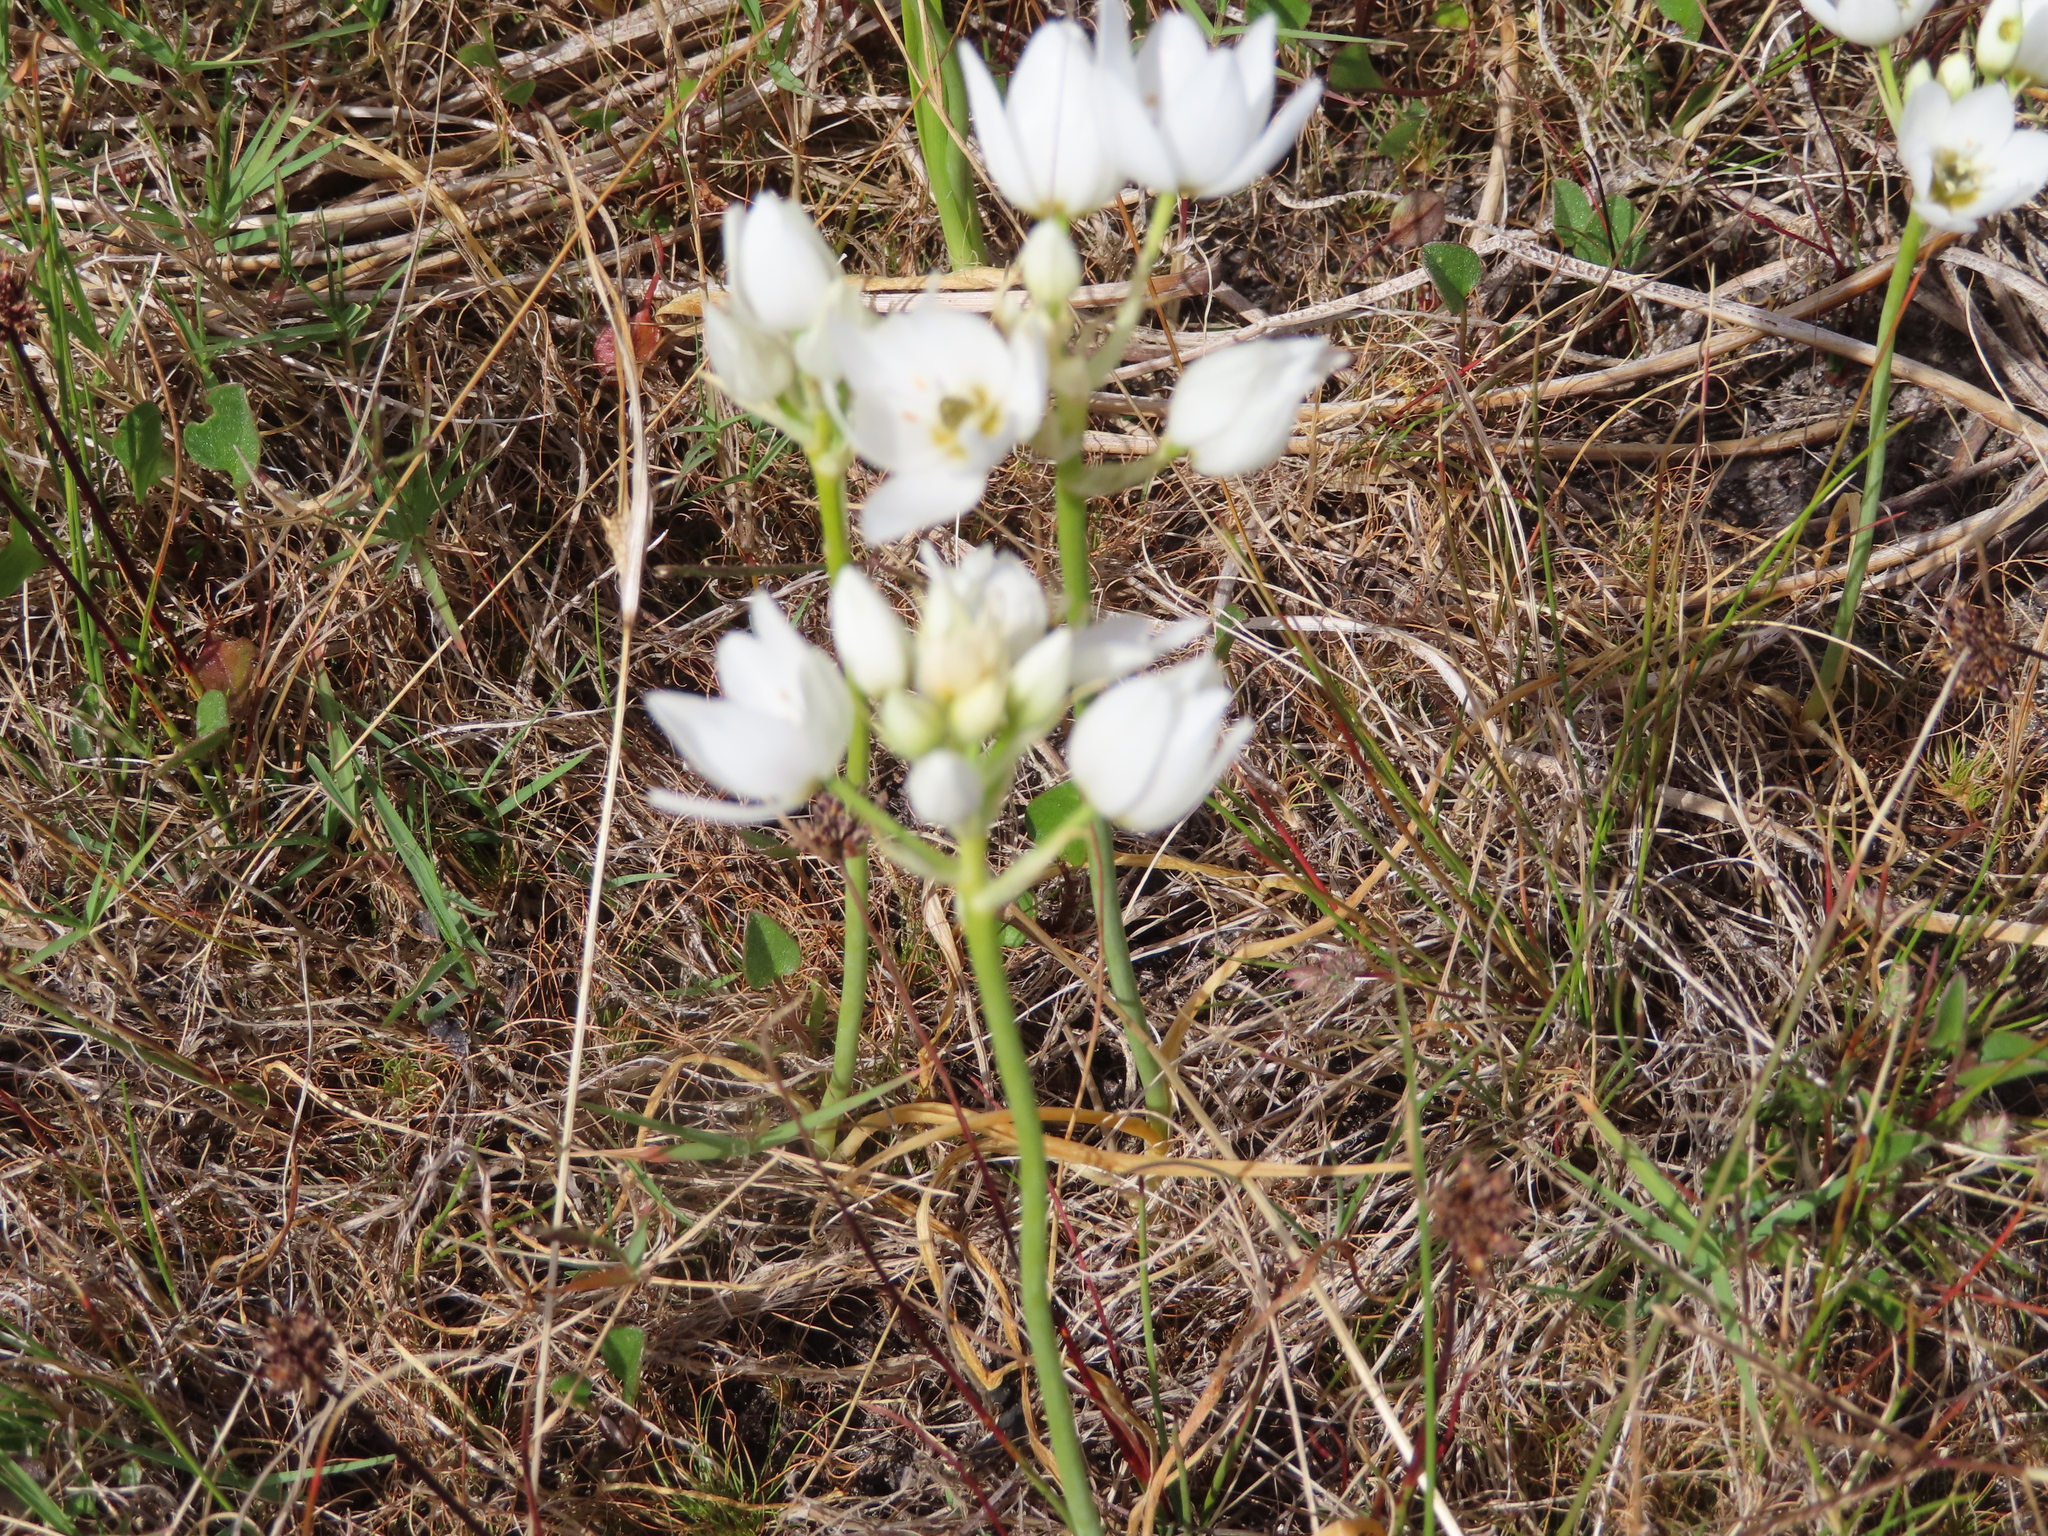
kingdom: Plantae
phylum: Tracheophyta
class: Liliopsida
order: Asparagales
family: Asparagaceae
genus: Ornithogalum
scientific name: Ornithogalum thyrsoides
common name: Chincherinchee
